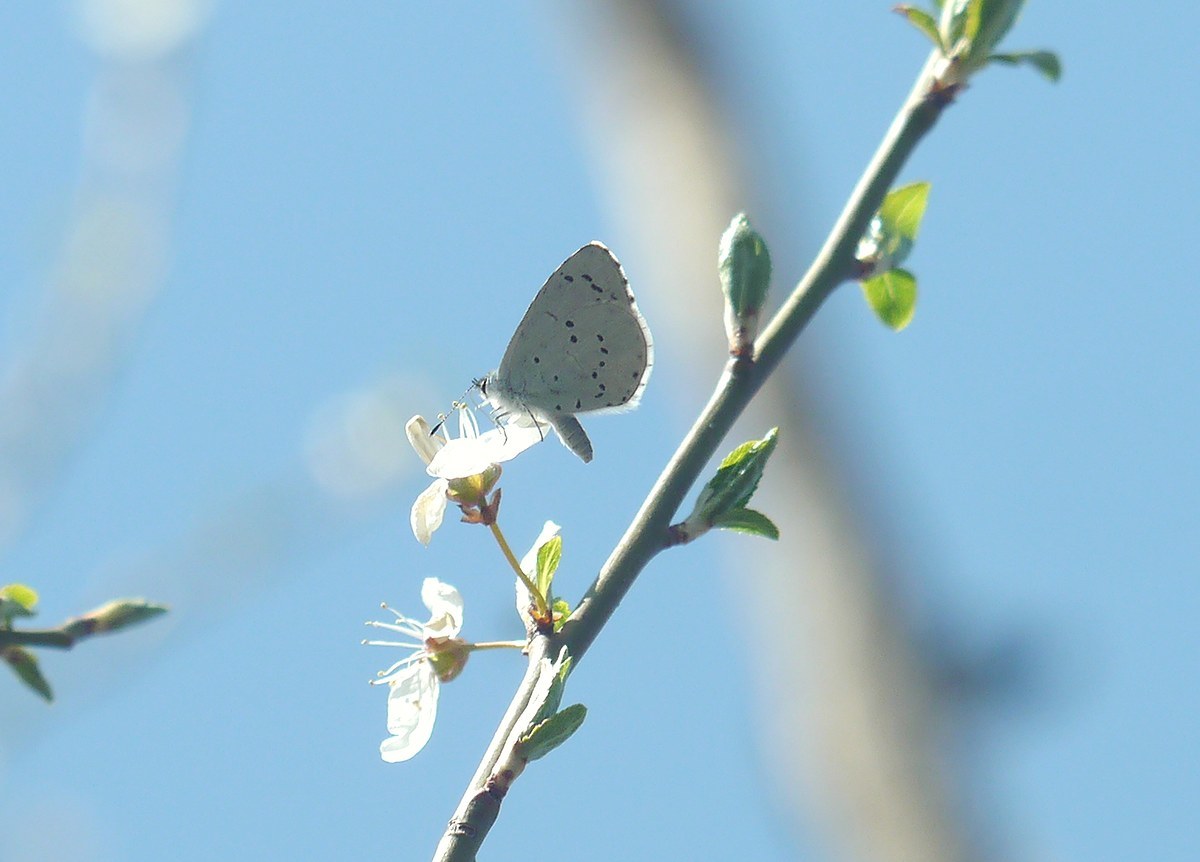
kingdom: Animalia
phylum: Arthropoda
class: Insecta
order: Lepidoptera
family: Lycaenidae
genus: Celastrina
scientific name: Celastrina argiolus
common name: Holly blue
